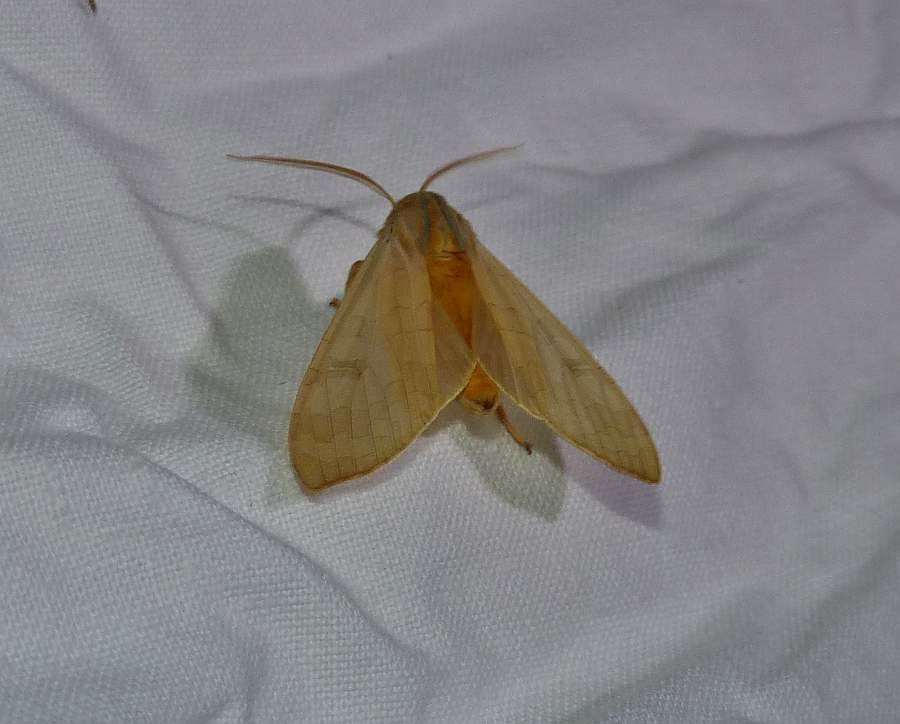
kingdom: Animalia
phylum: Arthropoda
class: Insecta
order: Lepidoptera
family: Erebidae
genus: Halysidota
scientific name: Halysidota tessellaris
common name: Banded tussock moth
